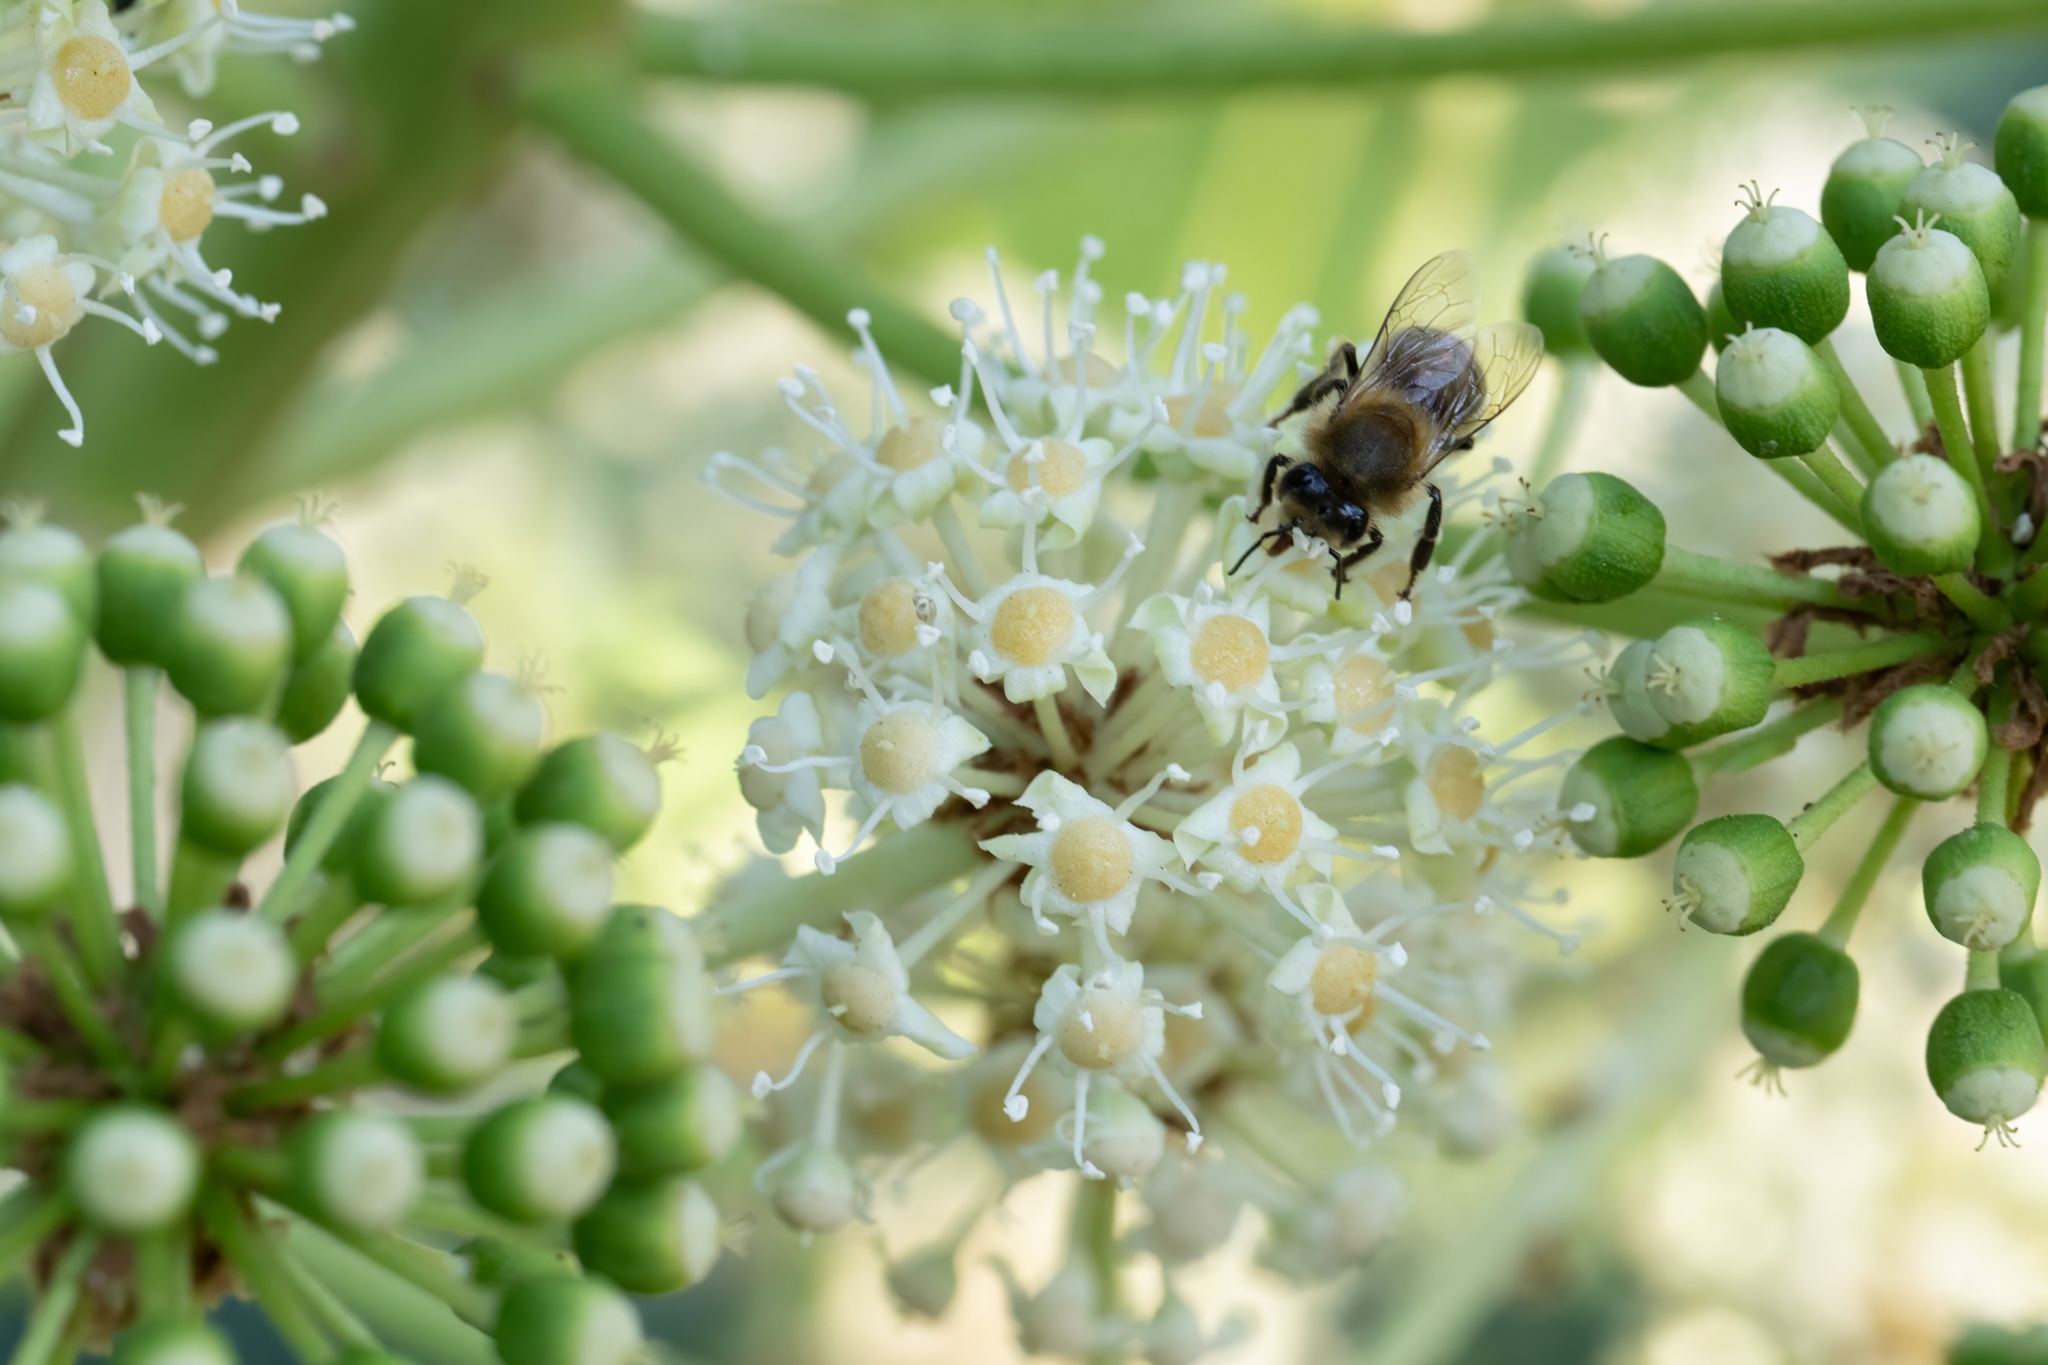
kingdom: Animalia
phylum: Arthropoda
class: Insecta
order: Hymenoptera
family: Apidae
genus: Apis
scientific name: Apis mellifera
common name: Honey bee
